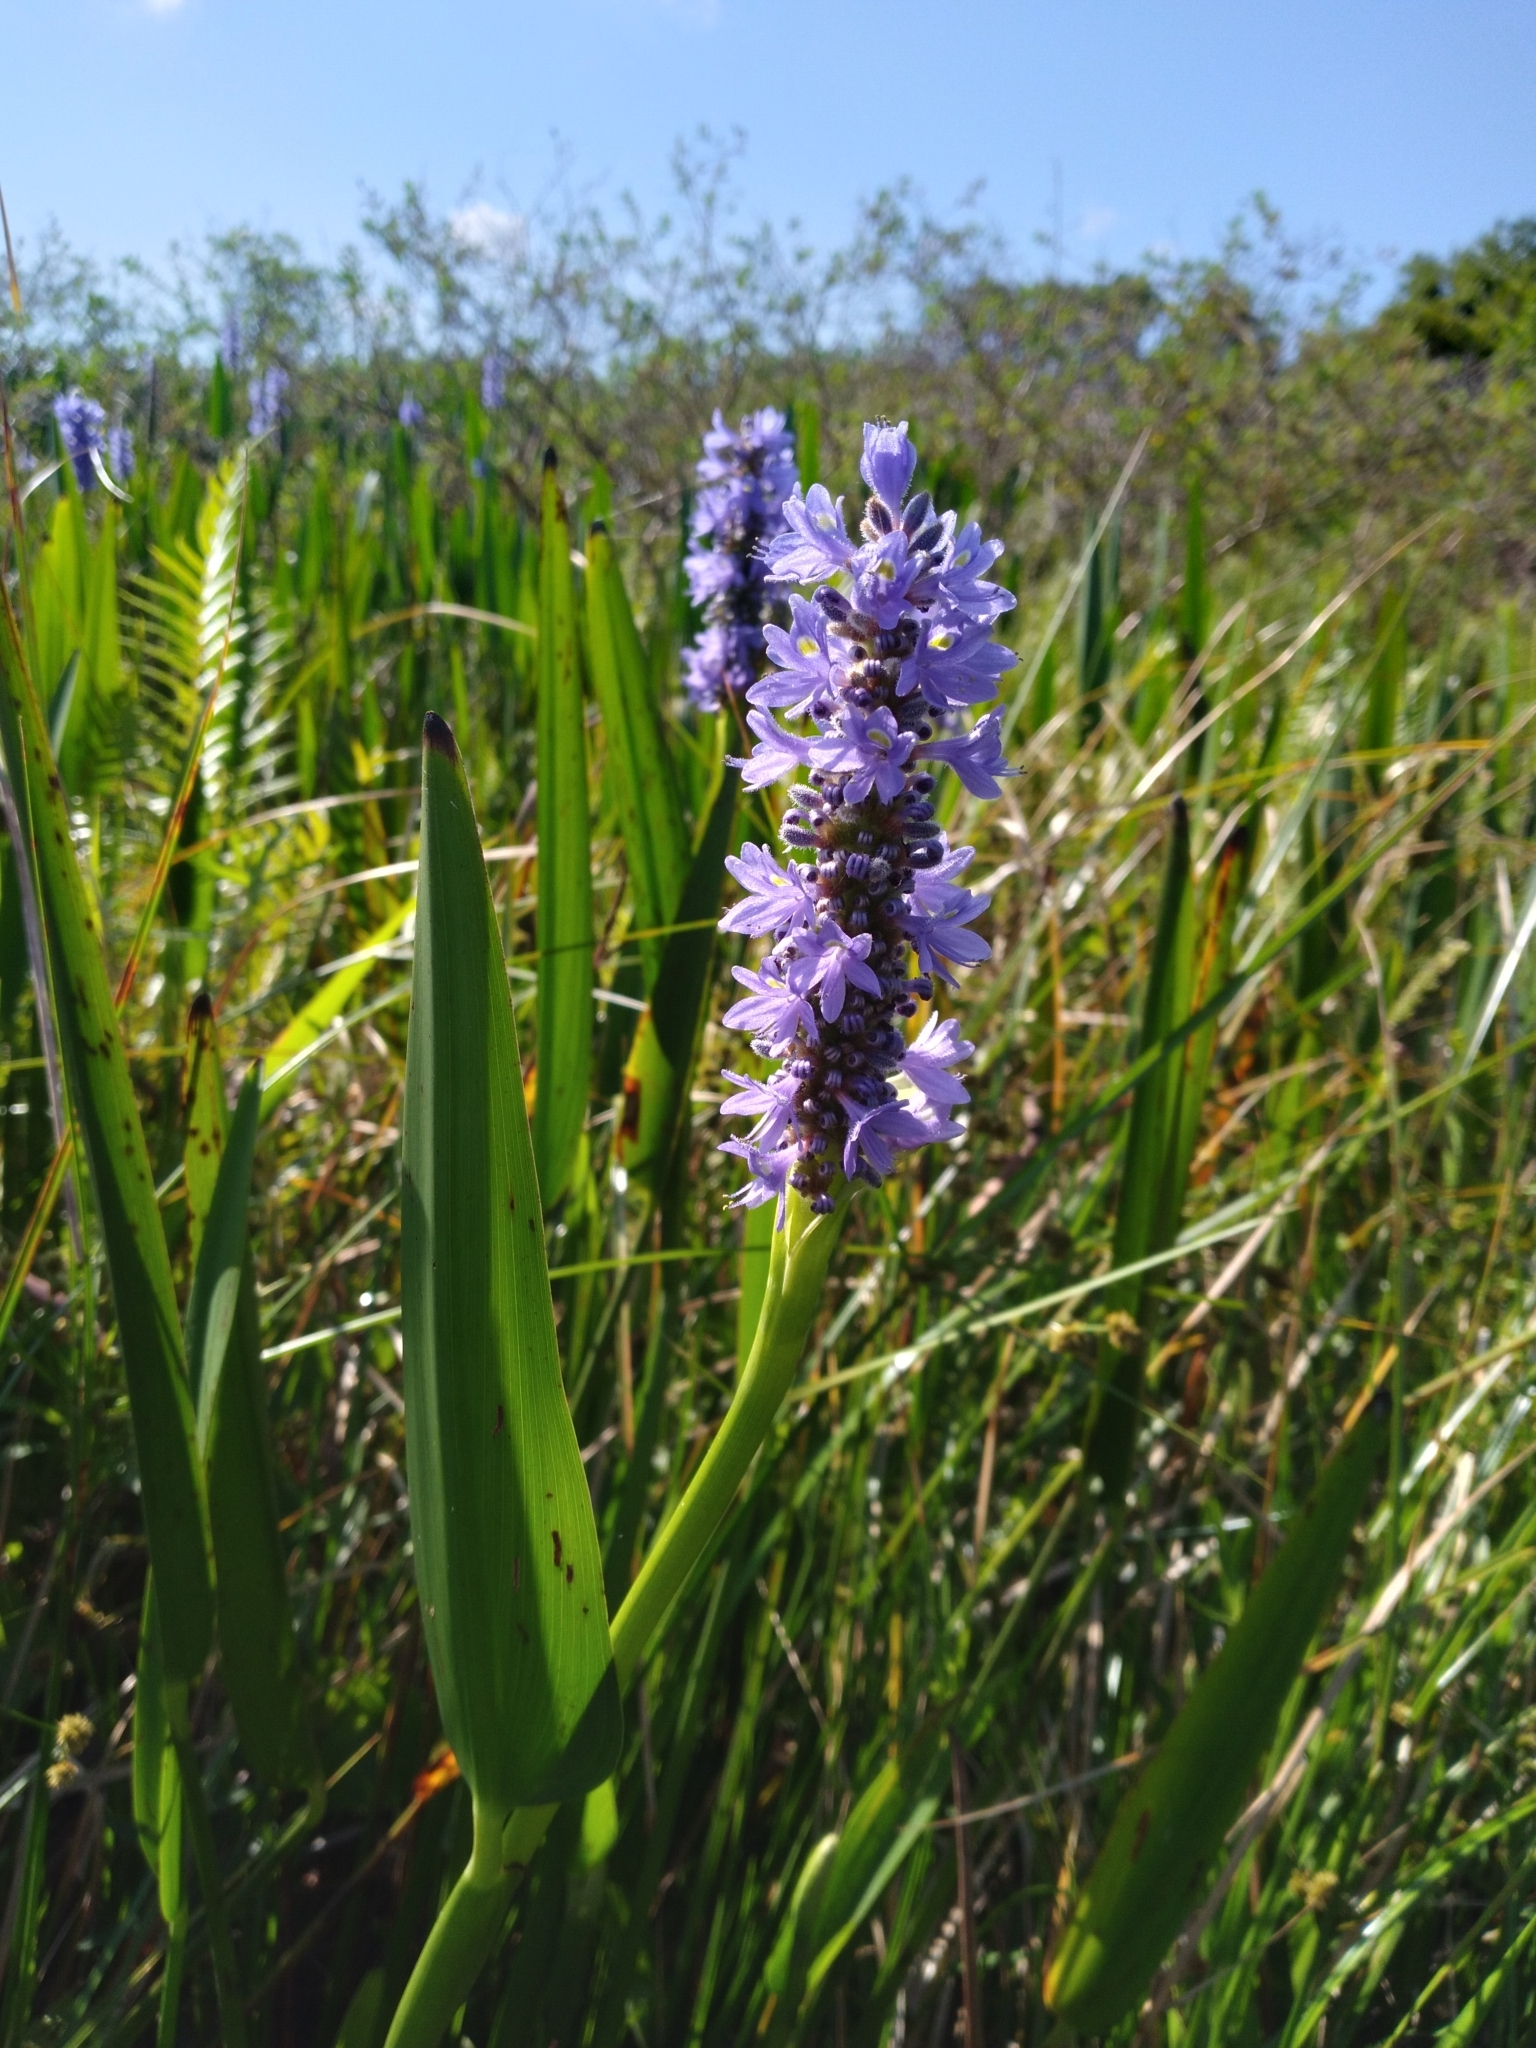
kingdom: Plantae
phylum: Tracheophyta
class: Liliopsida
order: Commelinales
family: Pontederiaceae
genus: Pontederia
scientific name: Pontederia cordata
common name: Pickerelweed
